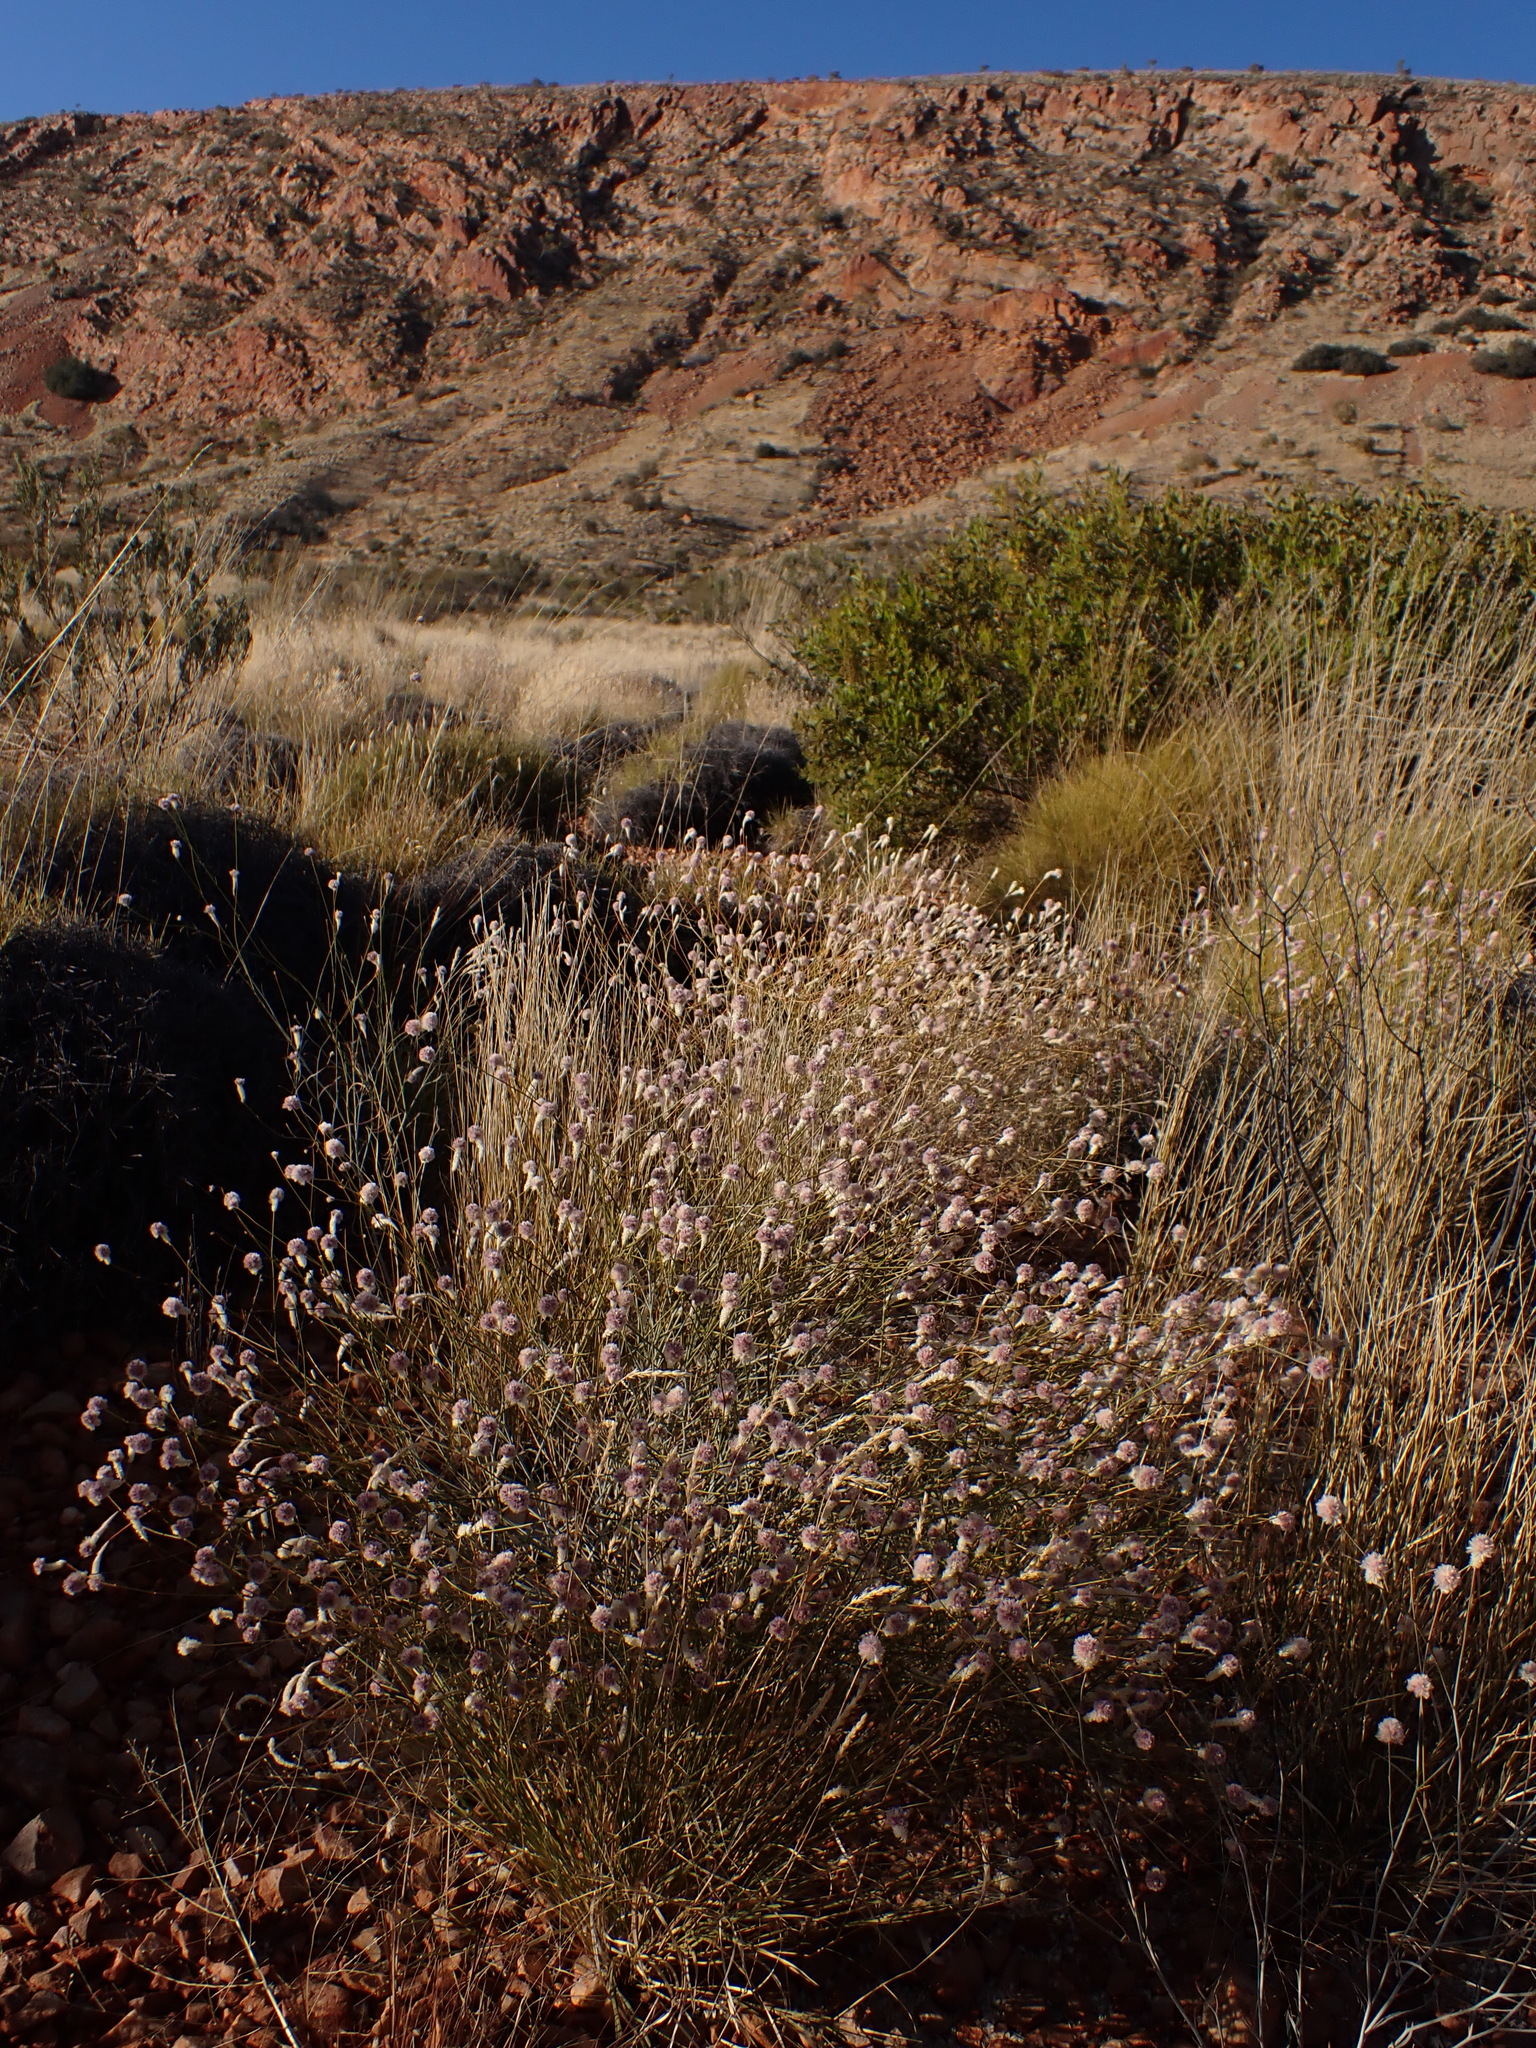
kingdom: Plantae
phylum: Tracheophyta
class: Magnoliopsida
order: Caryophyllales
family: Amaranthaceae
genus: Ptilotus
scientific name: Ptilotus schwartzii
